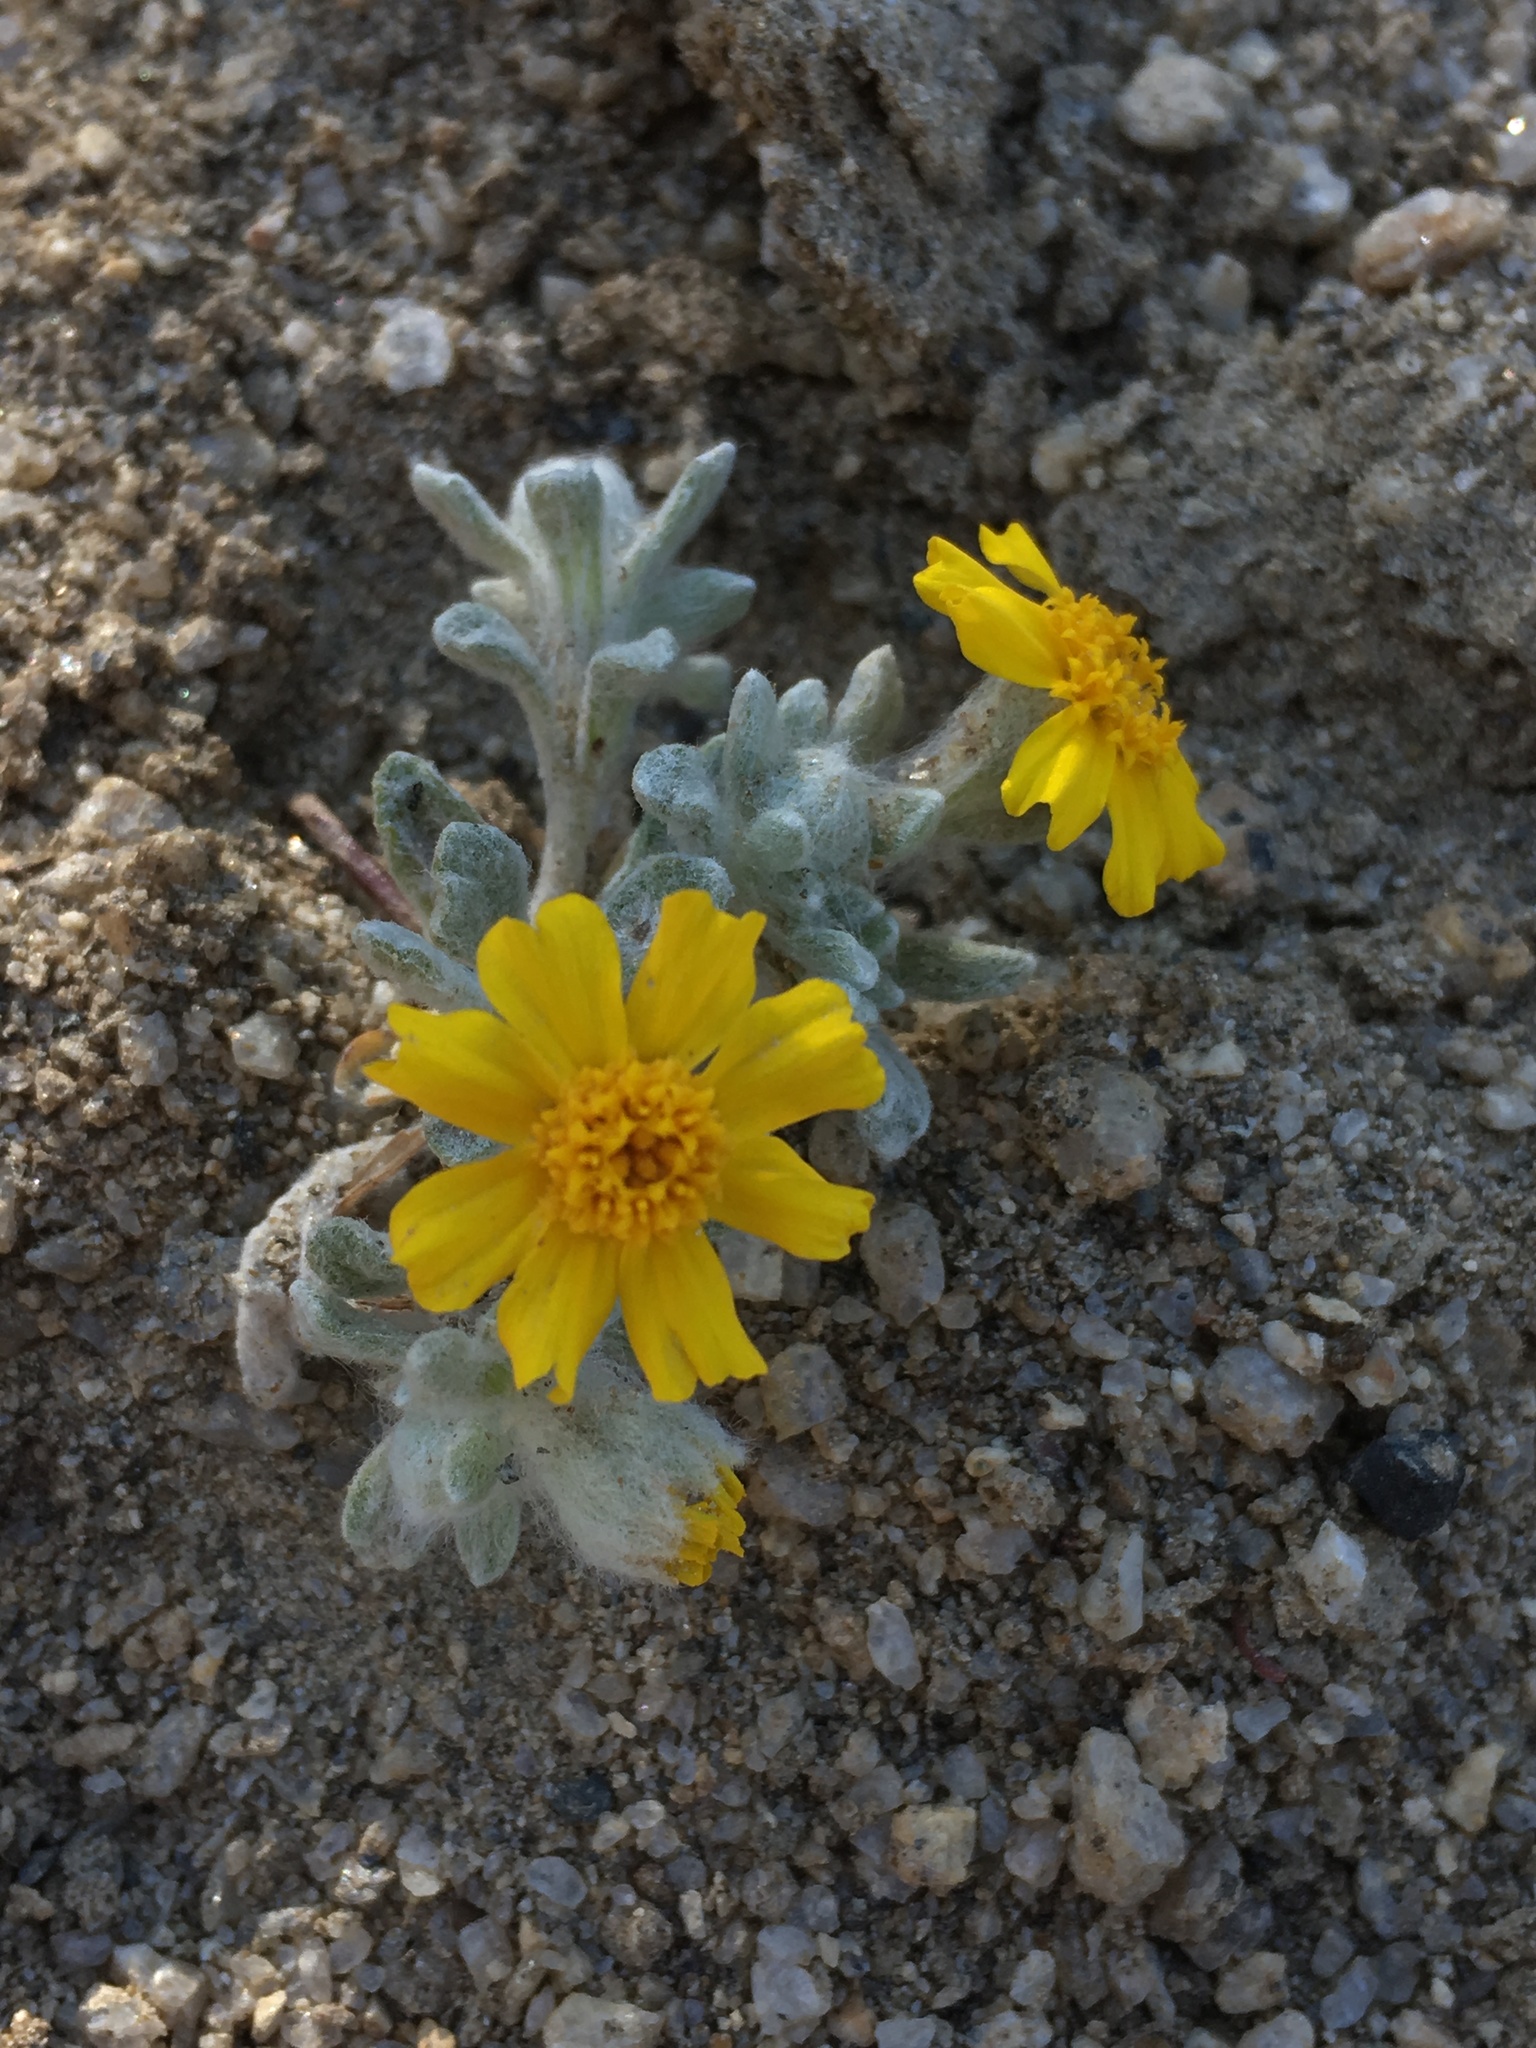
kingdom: Plantae
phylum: Tracheophyta
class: Magnoliopsida
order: Asterales
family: Asteraceae
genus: Eriophyllum
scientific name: Eriophyllum wallacei
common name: Wallace's woolly daisy
